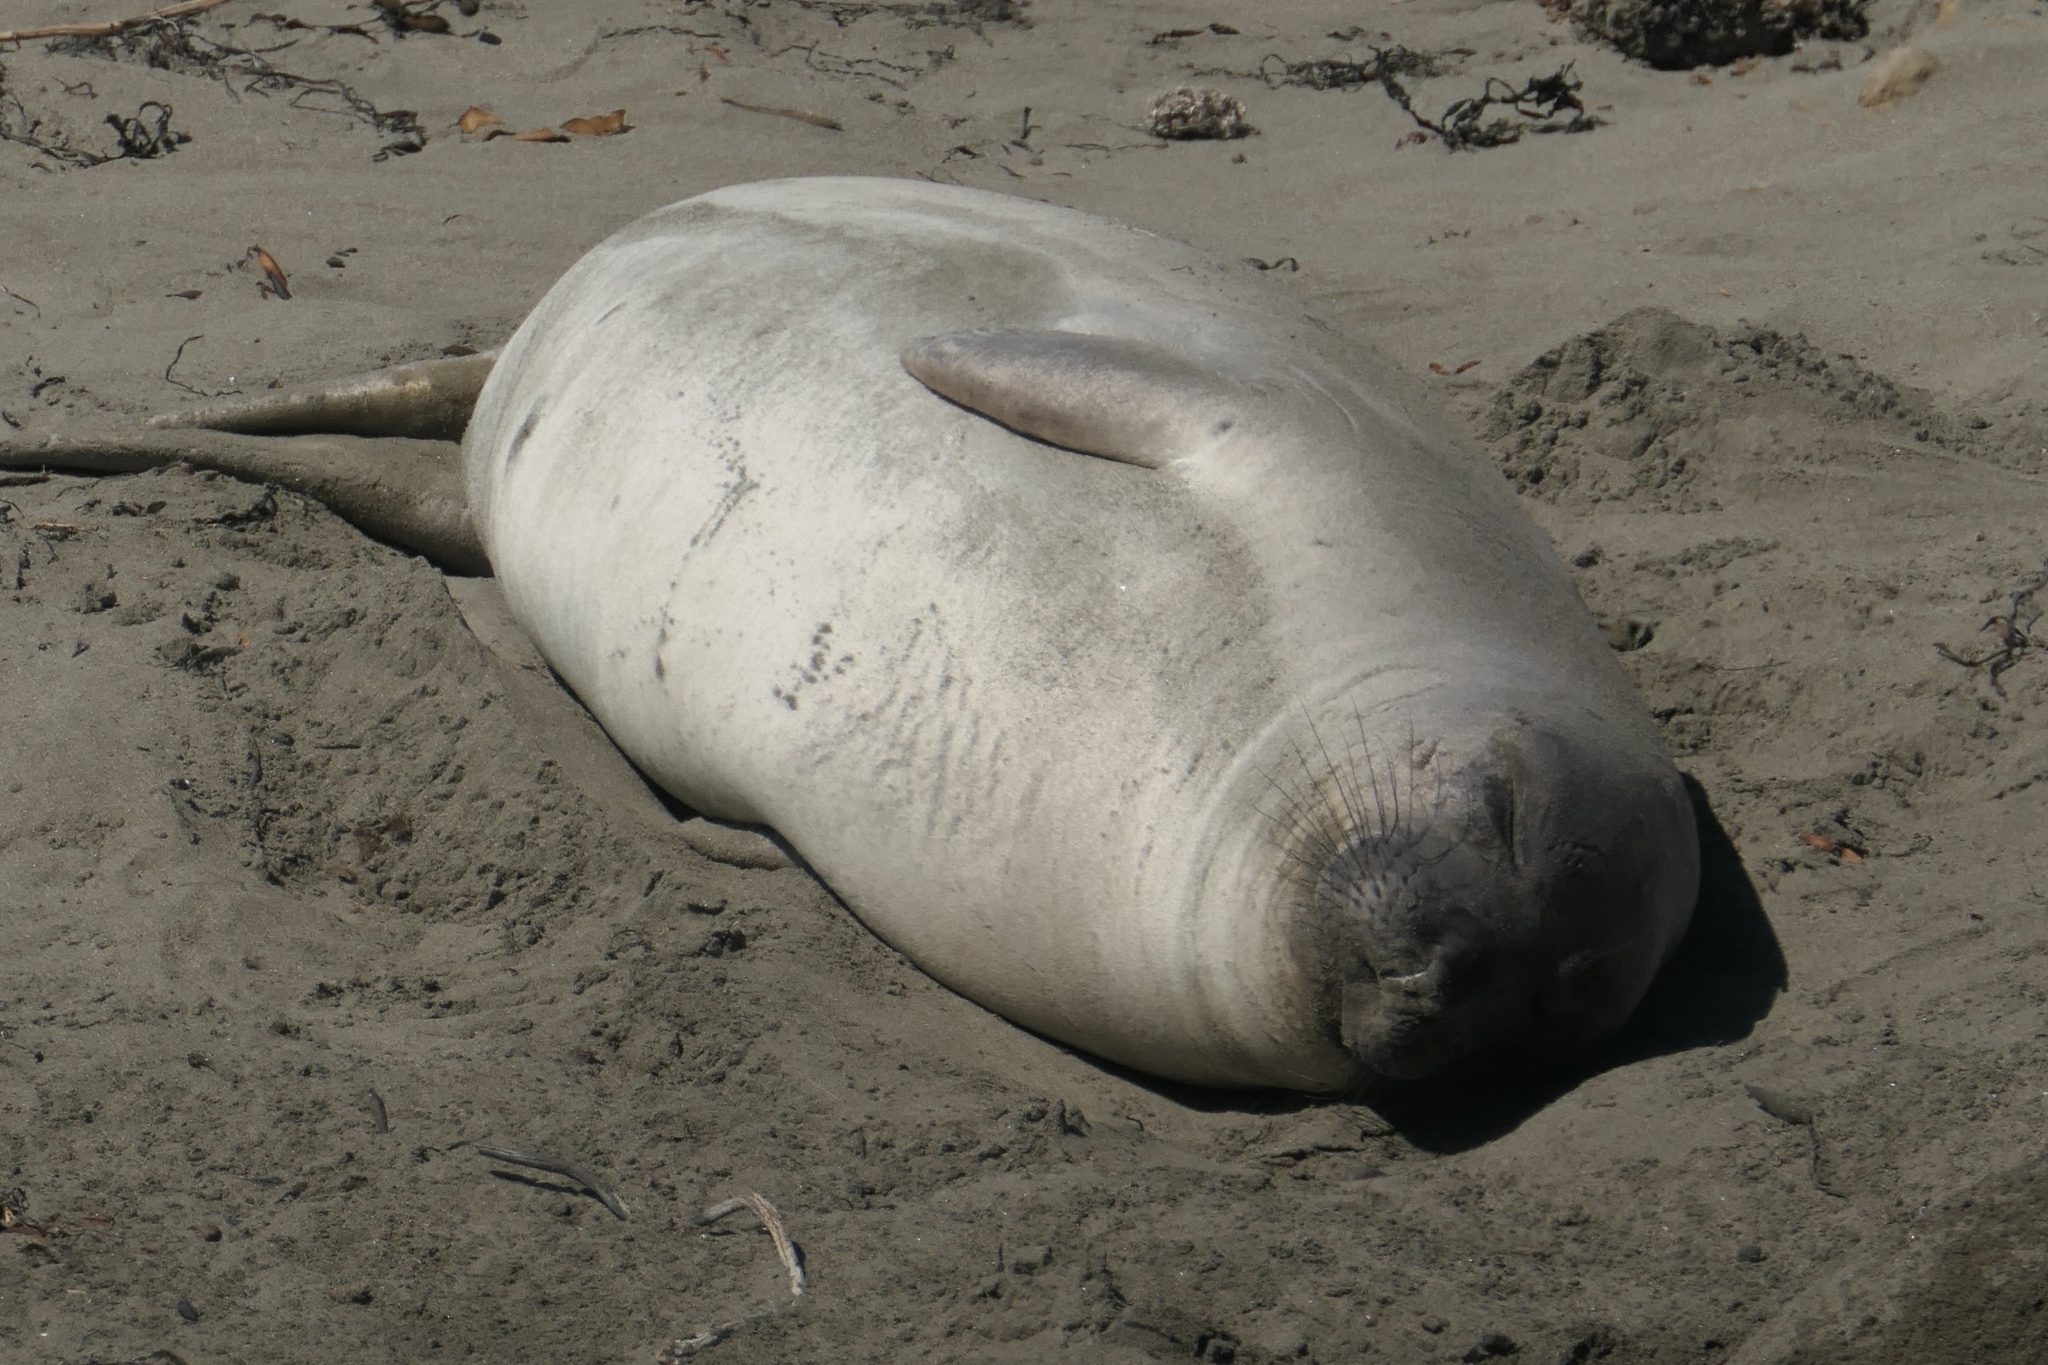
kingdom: Animalia
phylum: Chordata
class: Mammalia
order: Carnivora
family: Phocidae
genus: Mirounga
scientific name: Mirounga angustirostris
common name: Northern elephant seal
